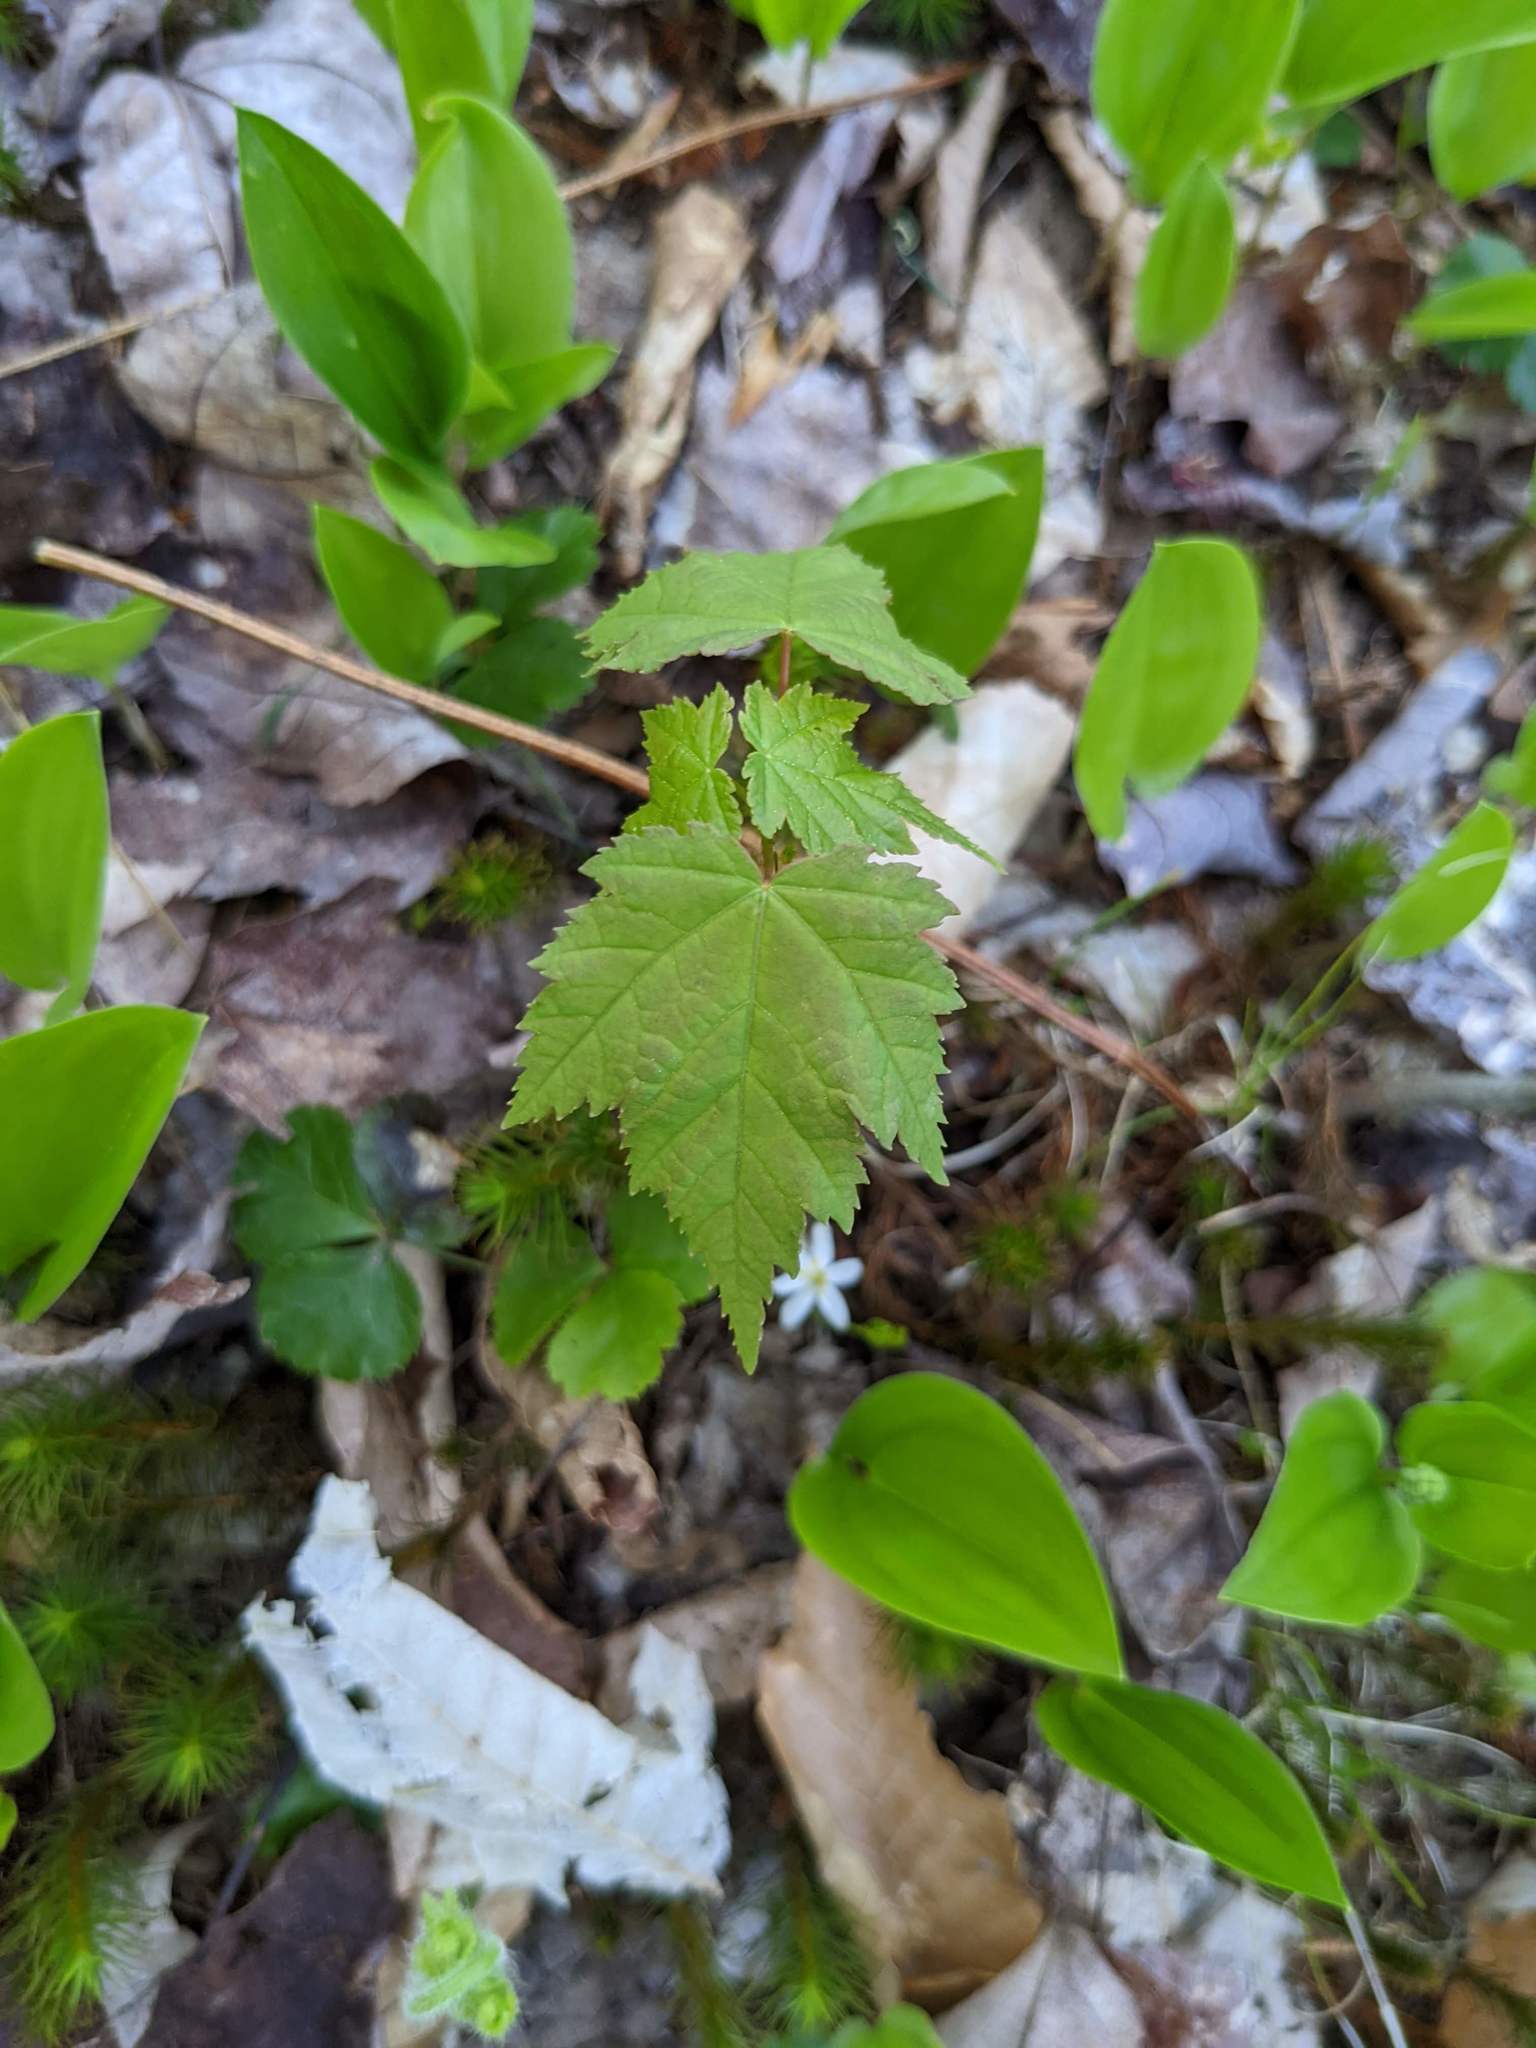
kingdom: Plantae
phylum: Tracheophyta
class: Liliopsida
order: Asparagales
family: Asparagaceae
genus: Maianthemum
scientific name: Maianthemum canadense
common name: False lily-of-the-valley
